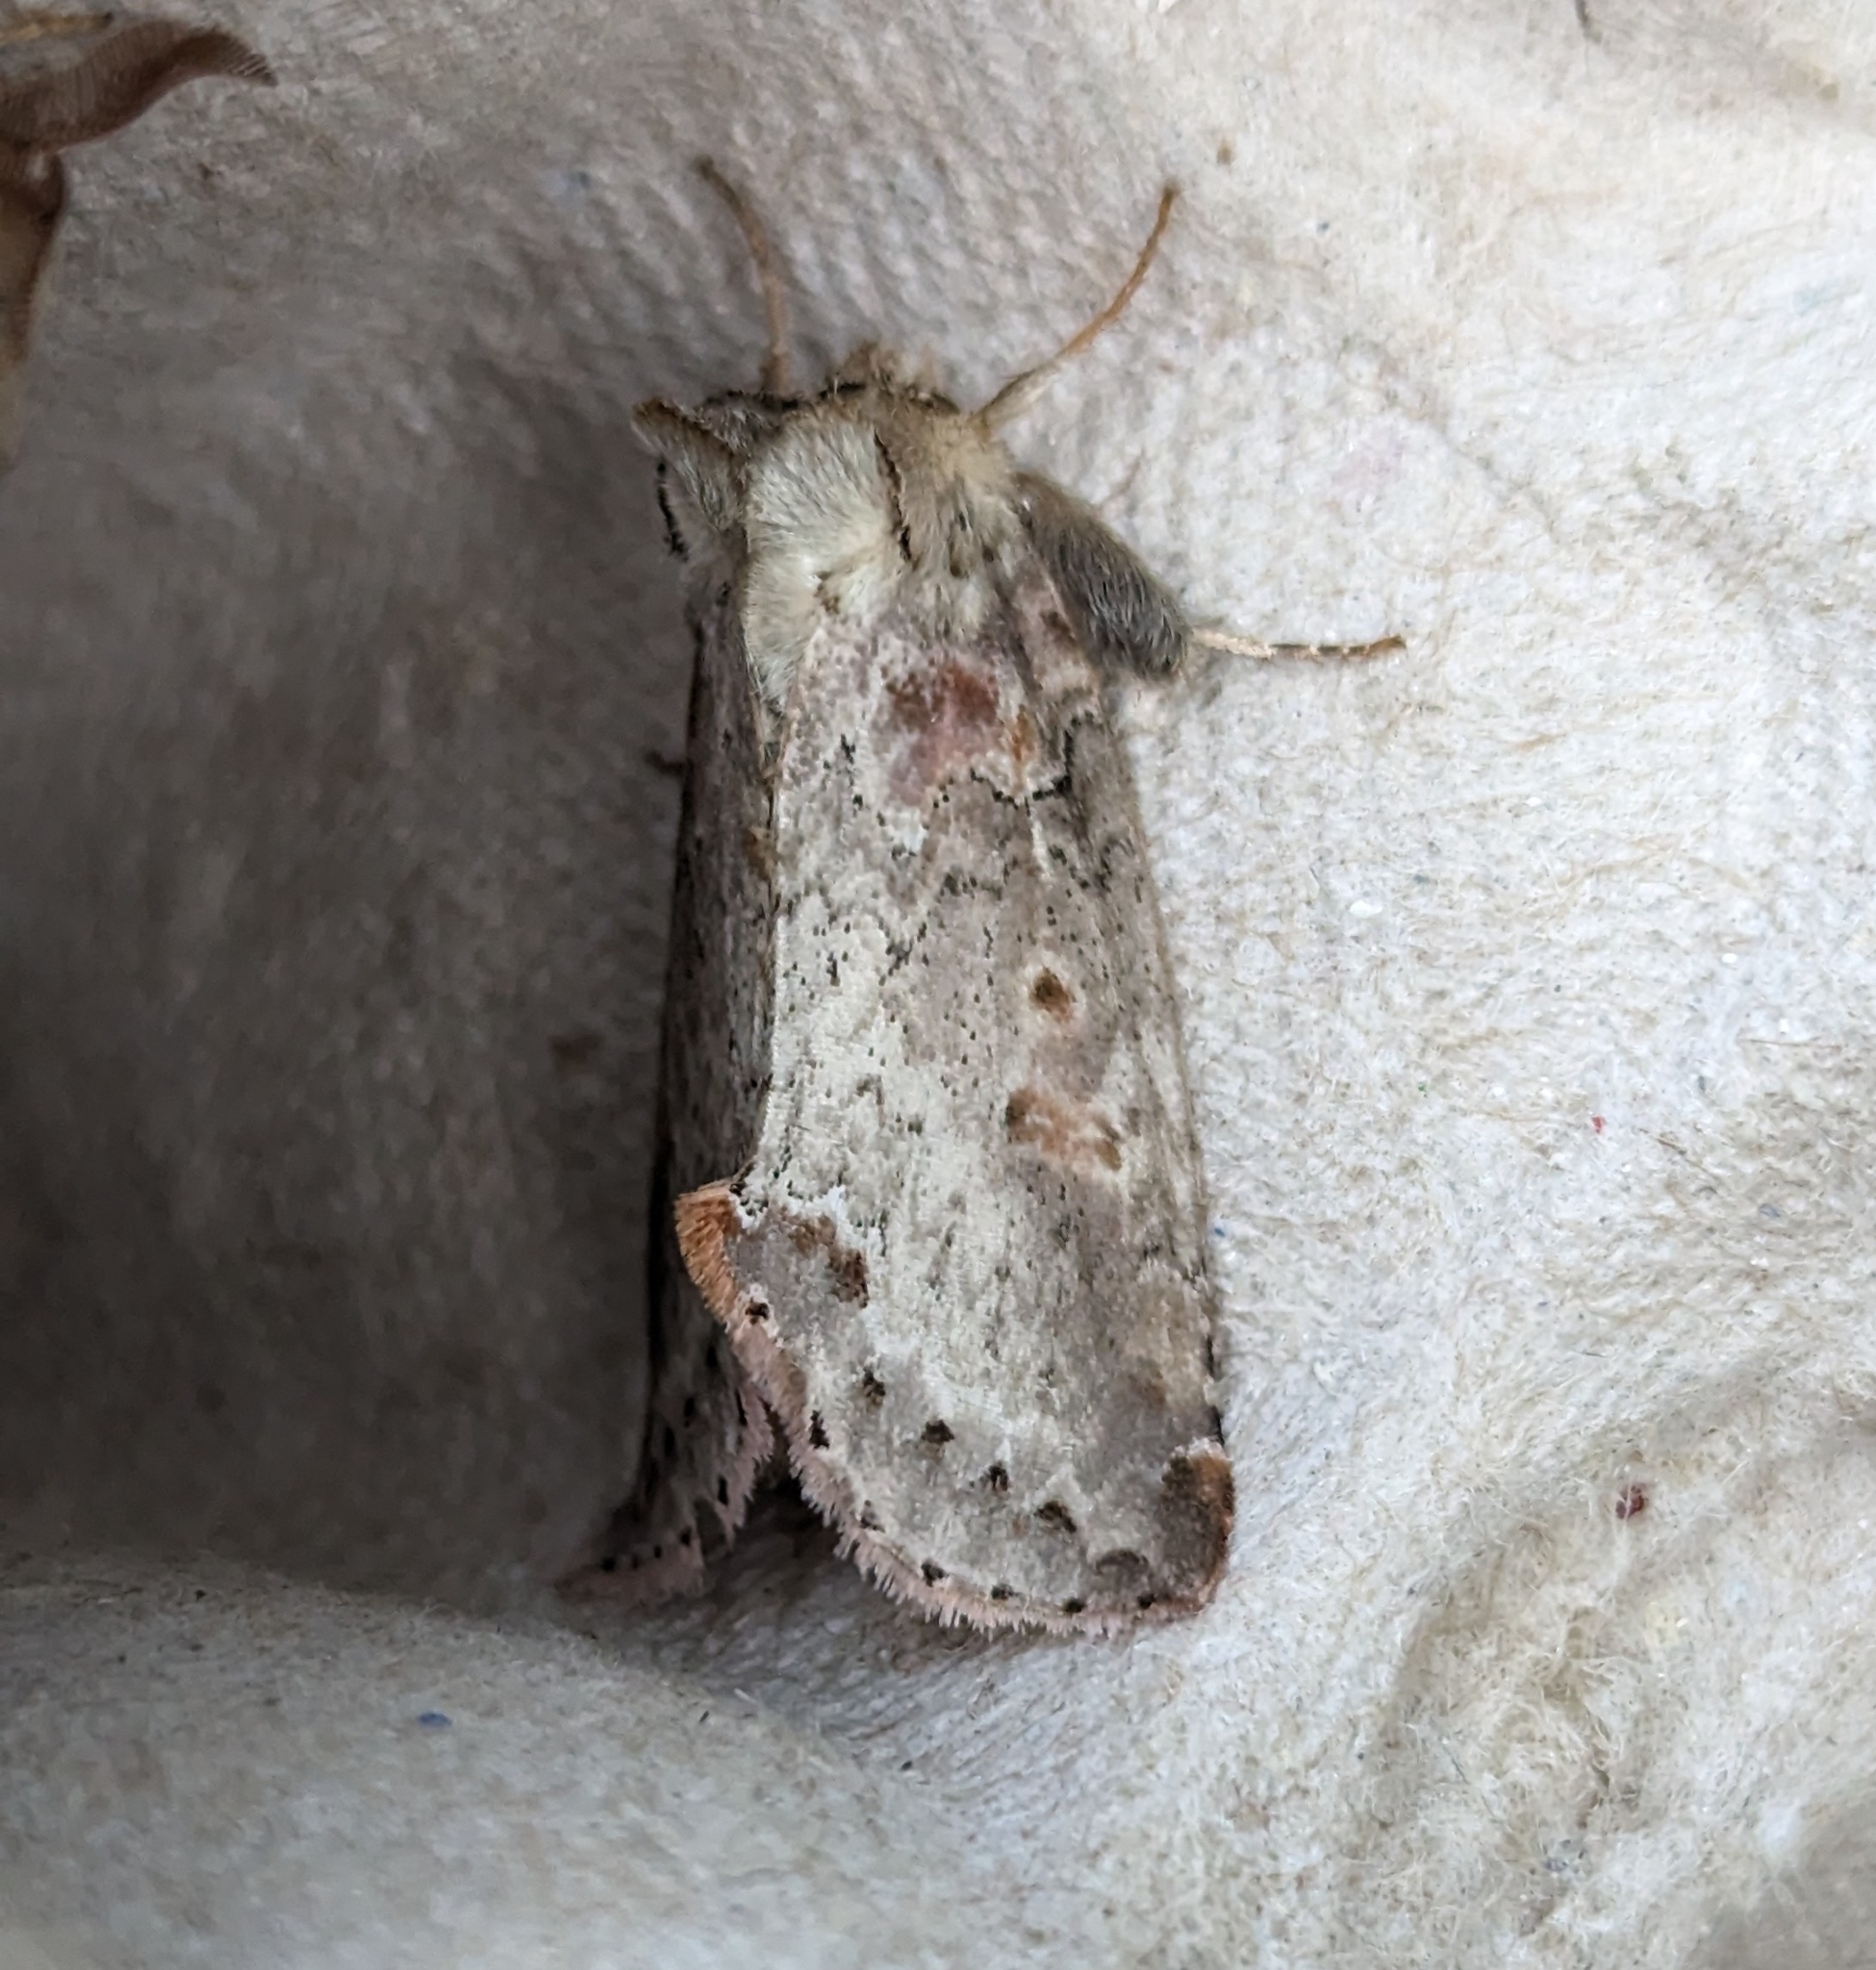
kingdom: Animalia
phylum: Arthropoda
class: Insecta
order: Lepidoptera
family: Drepanidae
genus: Pseudothyatira
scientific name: Pseudothyatira cymatophoroides
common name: Tufted thyatirid moth
